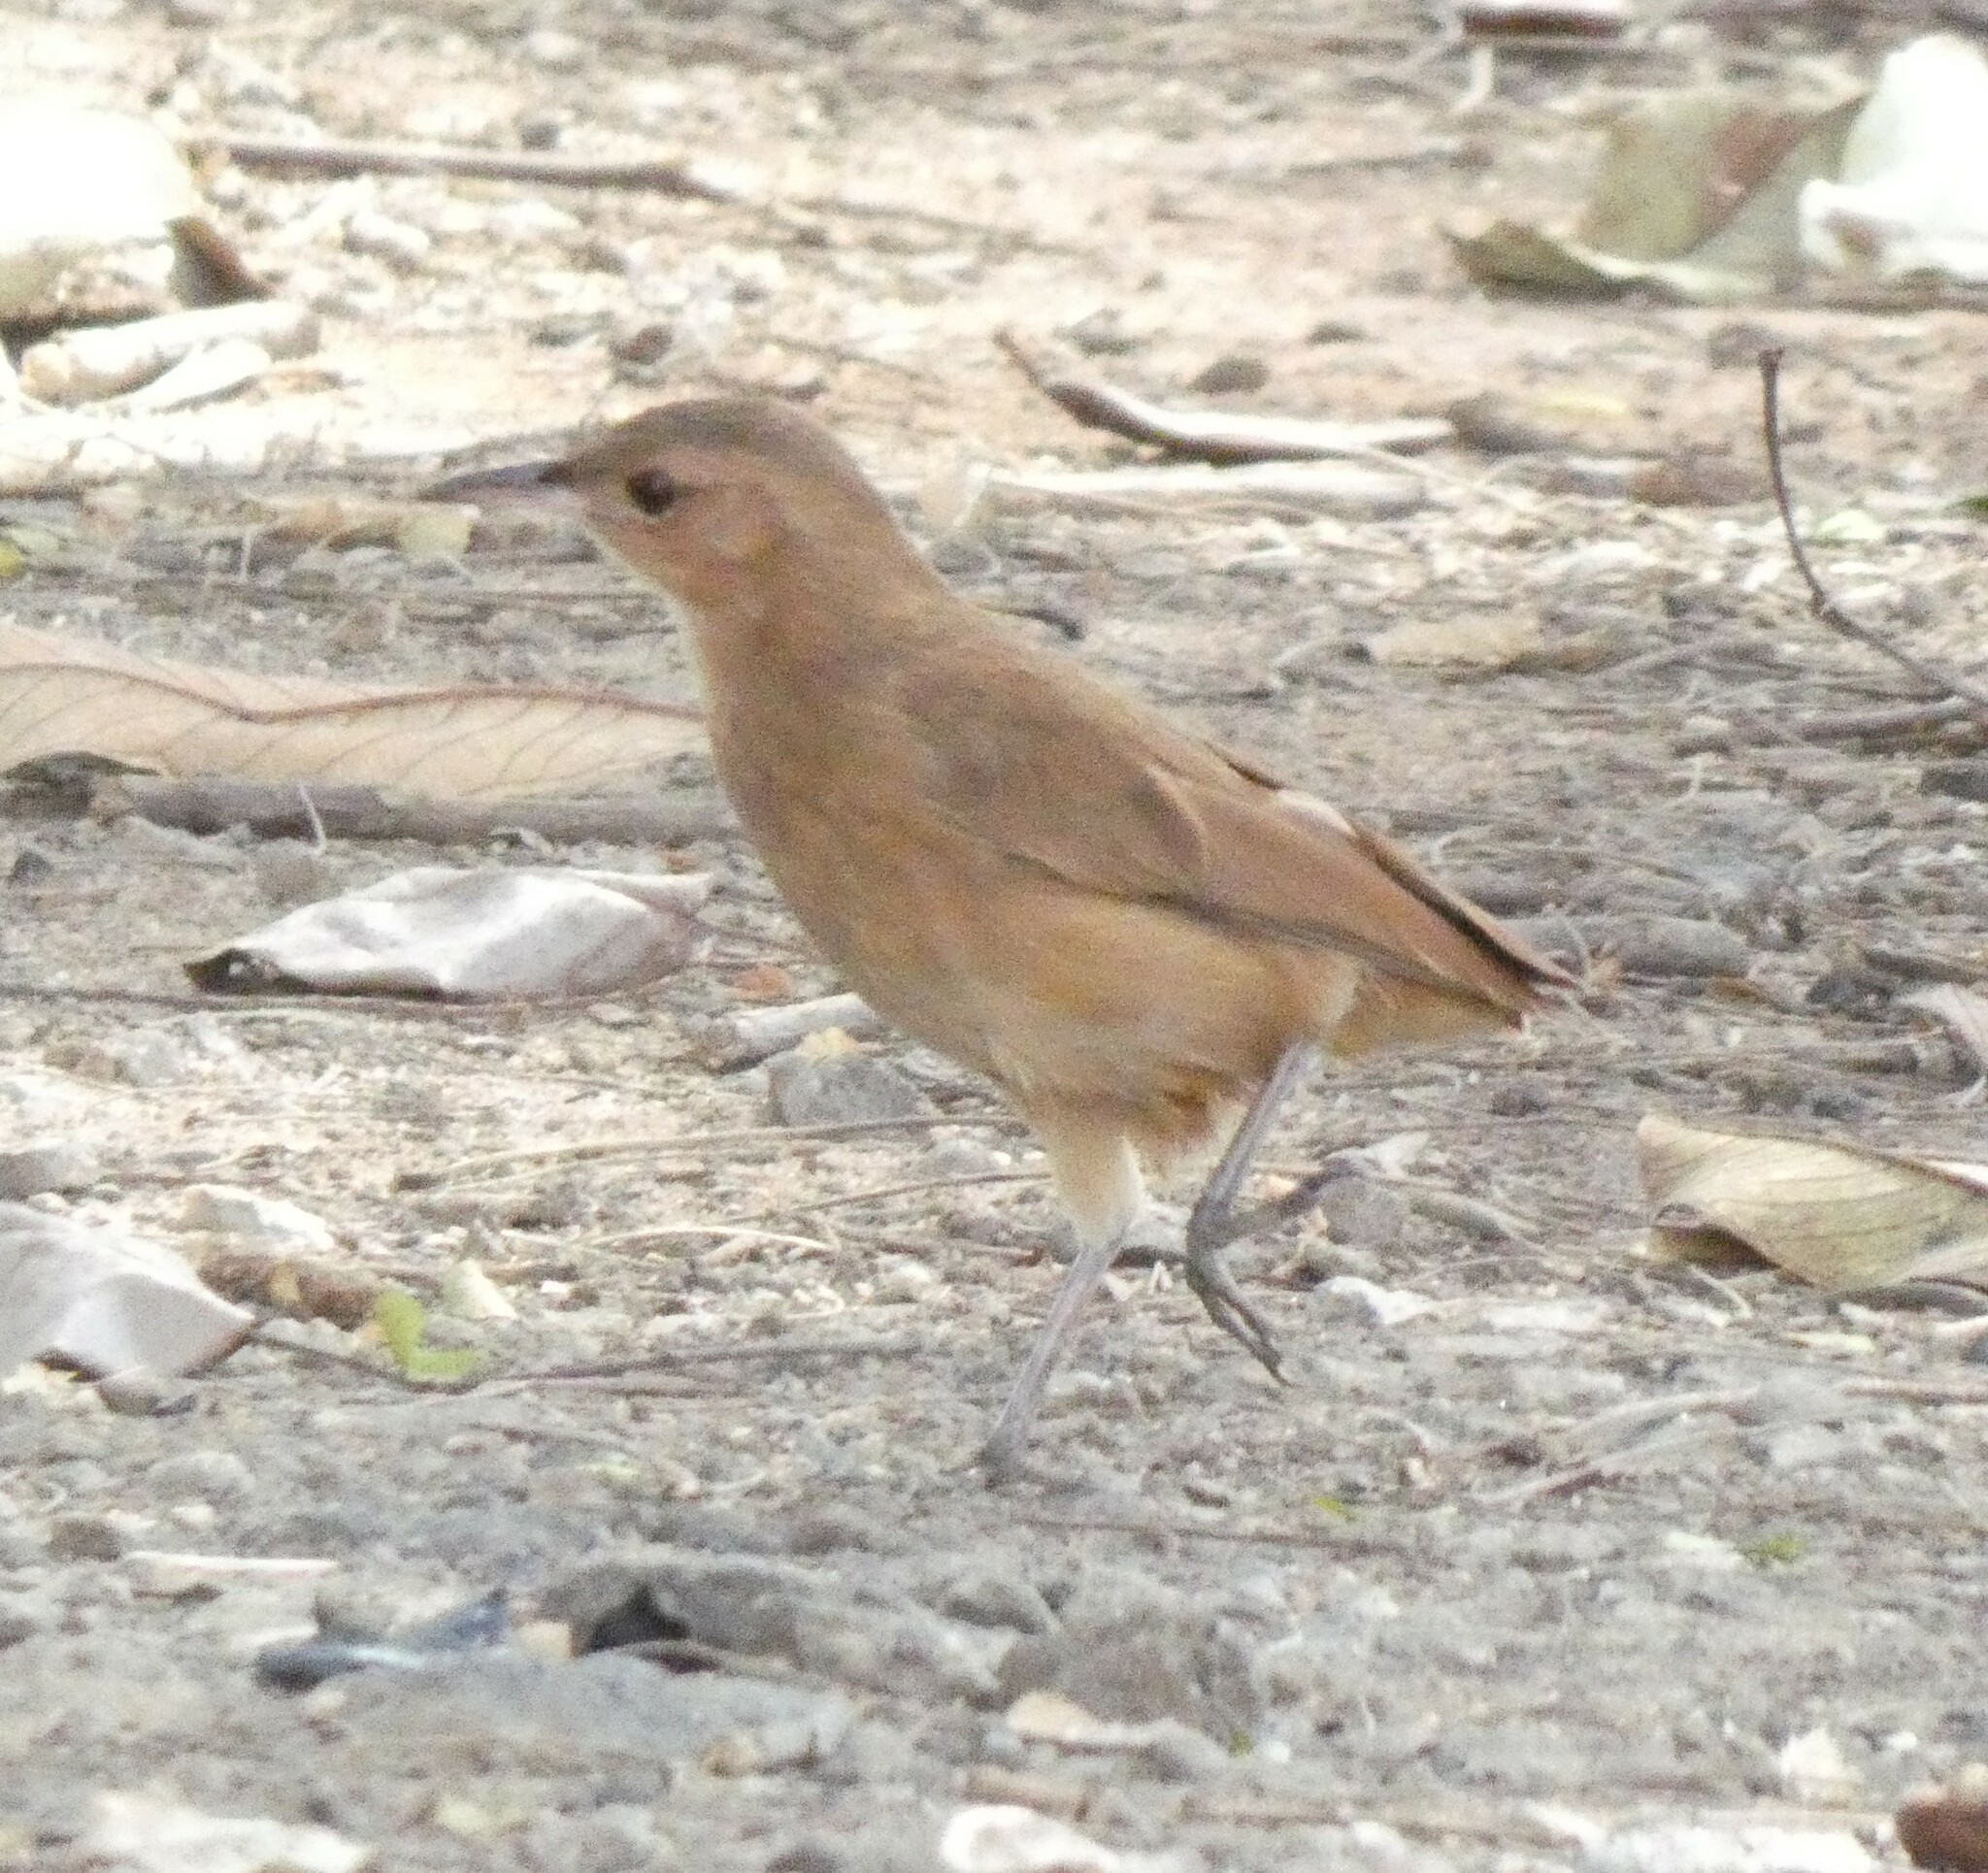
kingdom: Animalia
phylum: Chordata
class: Aves
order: Passeriformes
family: Furnariidae
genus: Furnarius
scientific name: Furnarius rufus
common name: Rufous hornero
